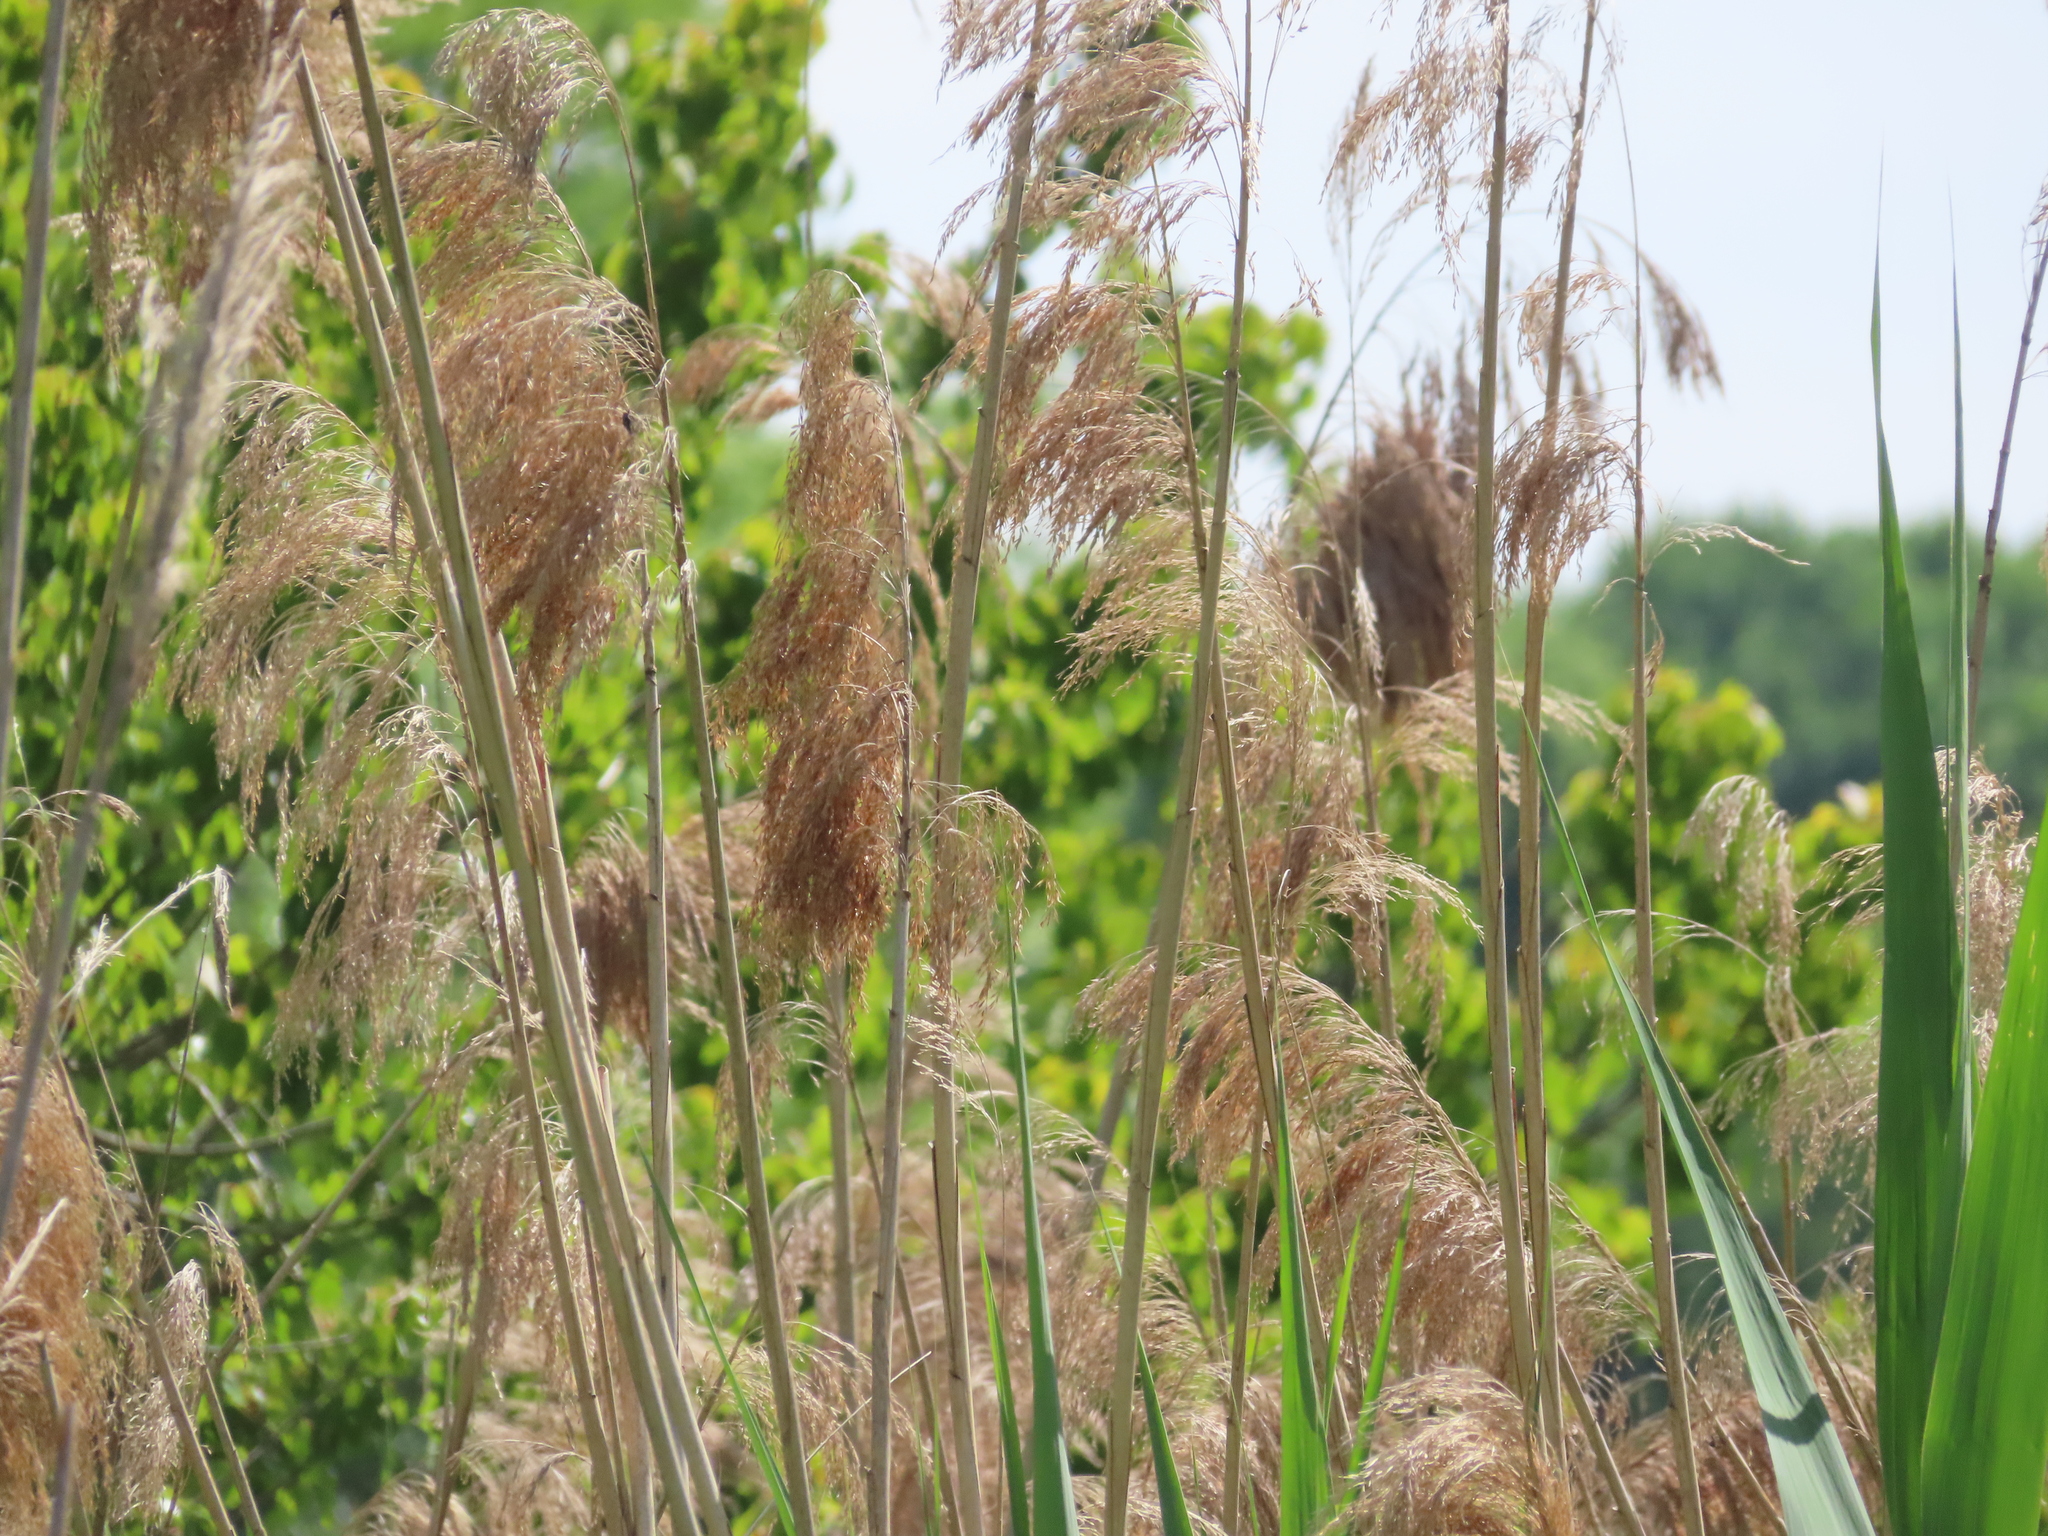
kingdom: Plantae
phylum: Tracheophyta
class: Liliopsida
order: Poales
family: Poaceae
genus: Phragmites
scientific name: Phragmites australis
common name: Common reed
